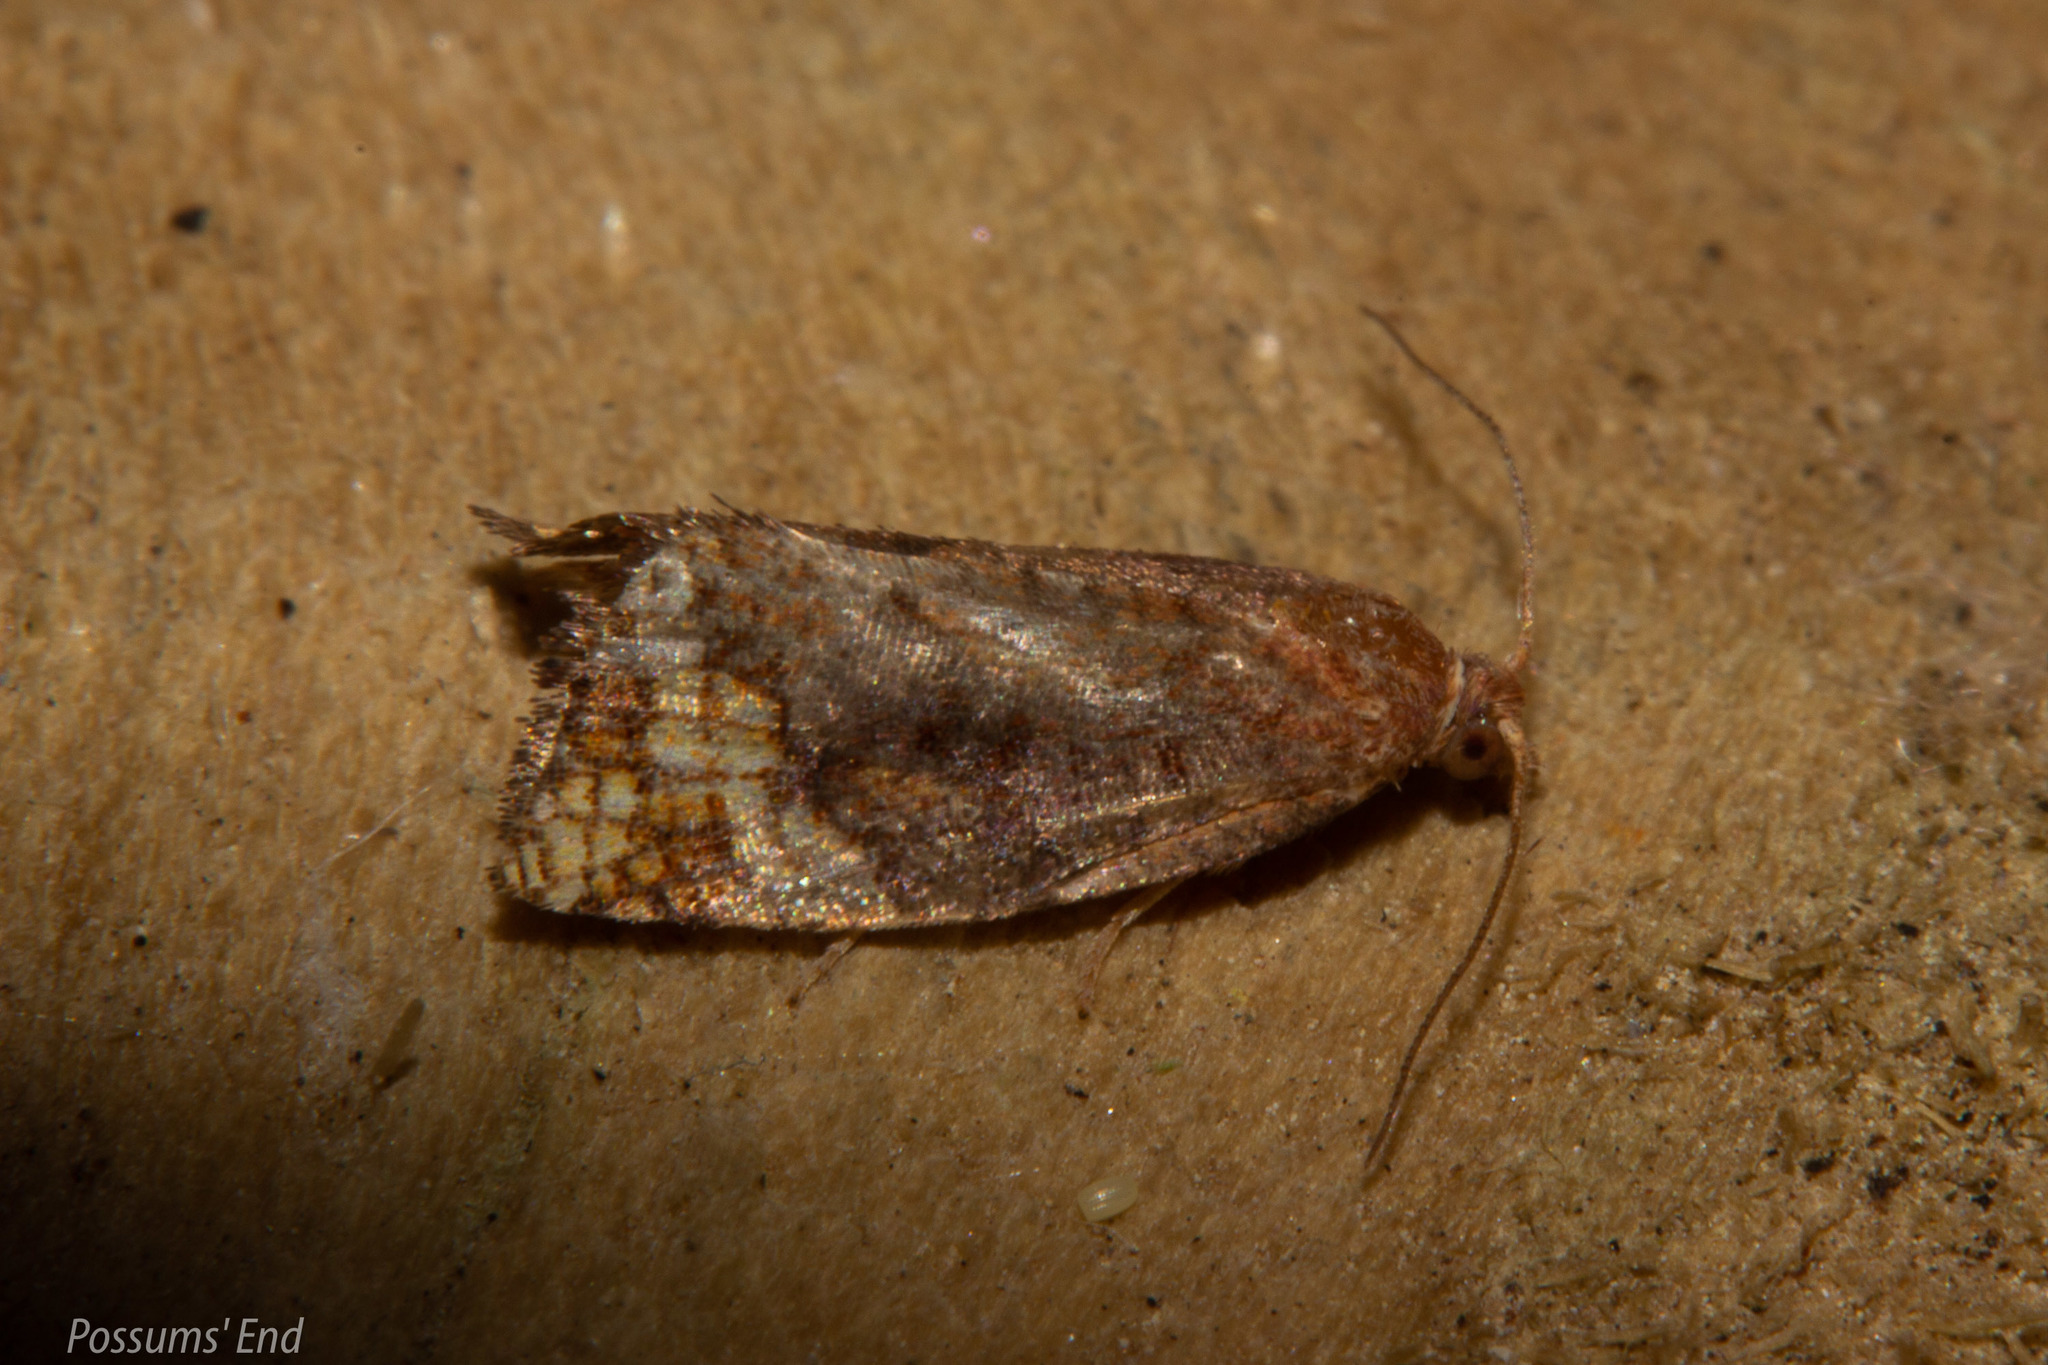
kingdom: Animalia
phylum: Arthropoda
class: Insecta
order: Lepidoptera
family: Tortricidae
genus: Pyrgotis
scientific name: Pyrgotis eudorana
